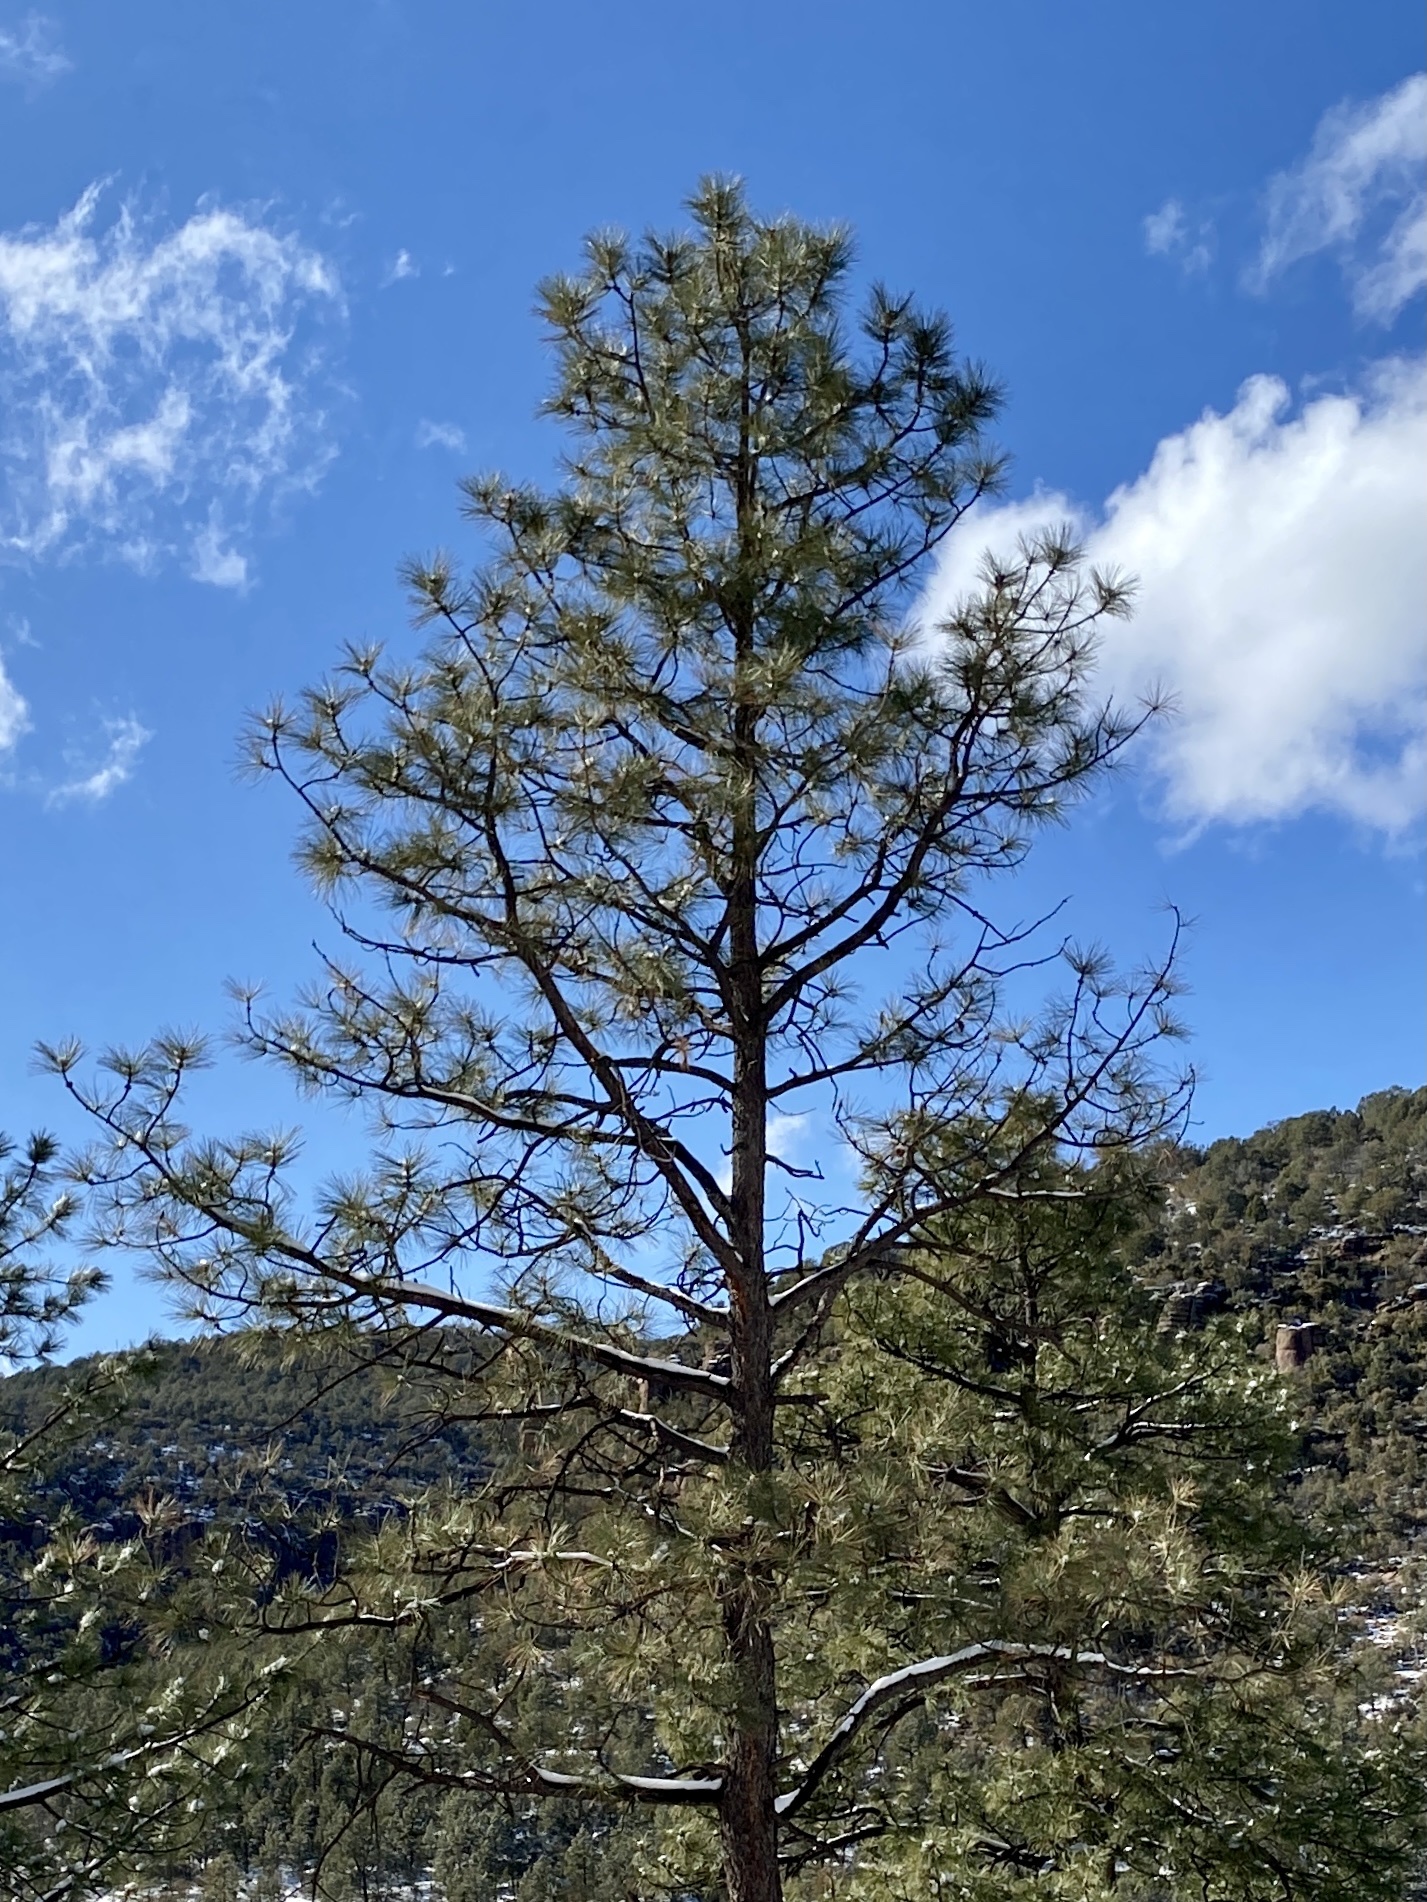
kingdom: Plantae
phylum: Tracheophyta
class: Pinopsida
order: Pinales
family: Pinaceae
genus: Pinus
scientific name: Pinus ponderosa
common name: Western yellow-pine
